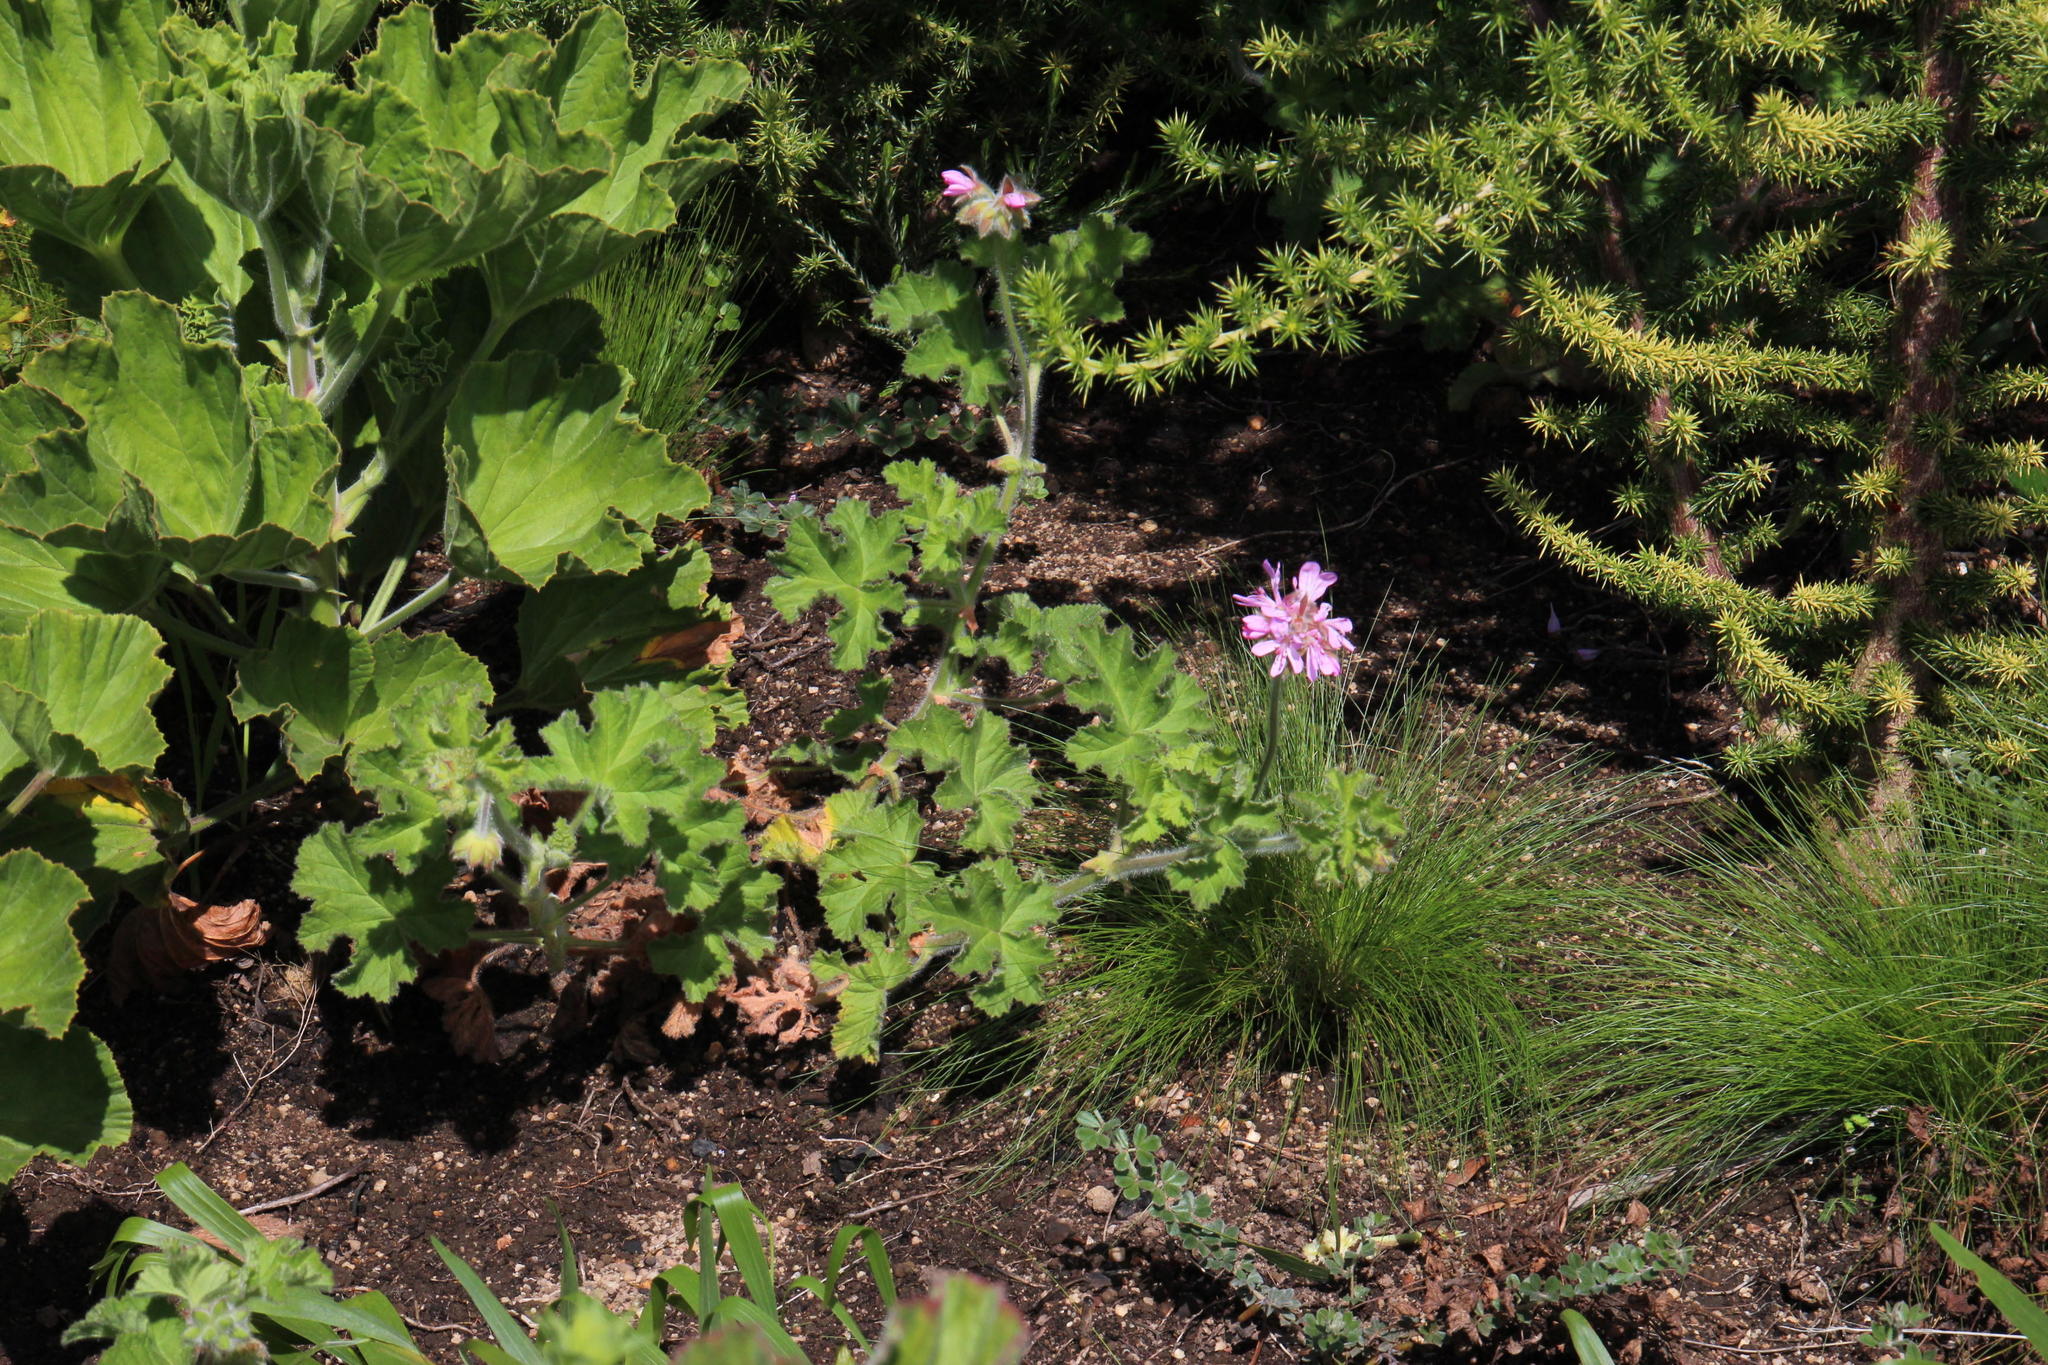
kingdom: Plantae
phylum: Tracheophyta
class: Magnoliopsida
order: Geraniales
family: Geraniaceae
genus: Pelargonium
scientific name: Pelargonium capitatum
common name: Rose scented geranium
